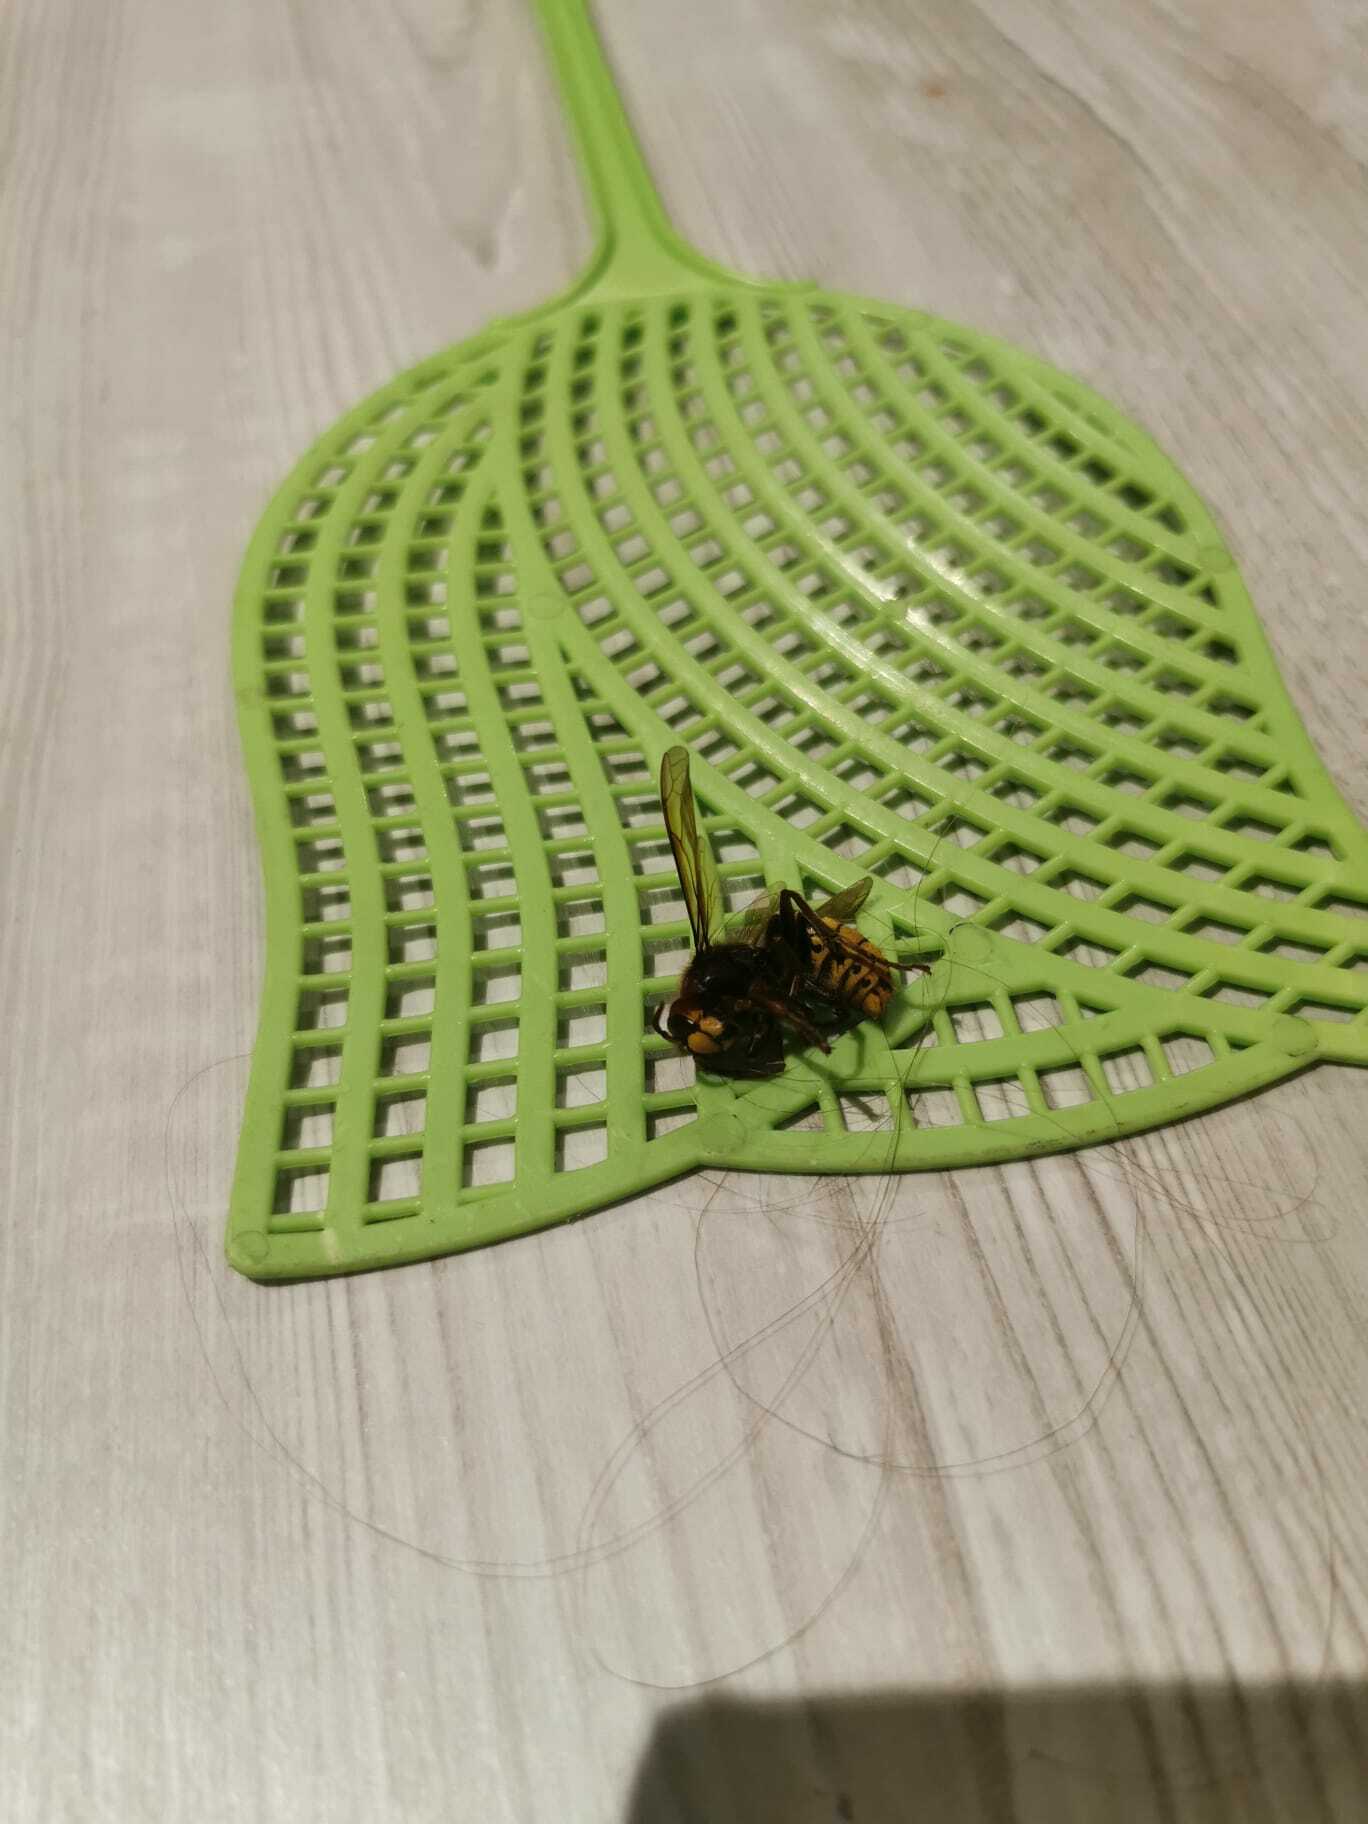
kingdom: Animalia
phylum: Arthropoda
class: Insecta
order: Hymenoptera
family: Vespidae
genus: Vespa
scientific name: Vespa crabro
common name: Hornet
